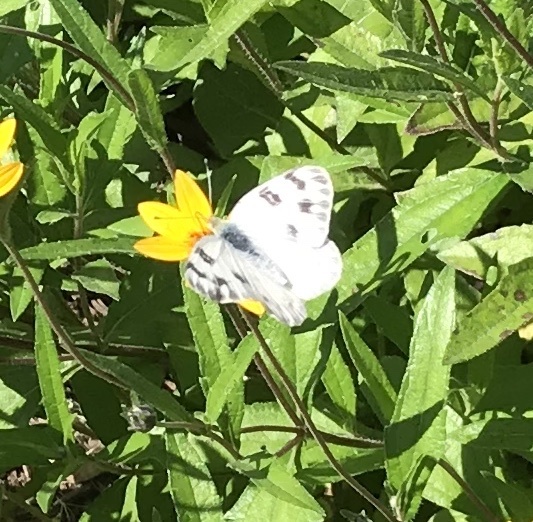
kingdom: Animalia
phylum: Arthropoda
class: Insecta
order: Lepidoptera
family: Pieridae
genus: Pontia
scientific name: Pontia protodice
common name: Checkered white
